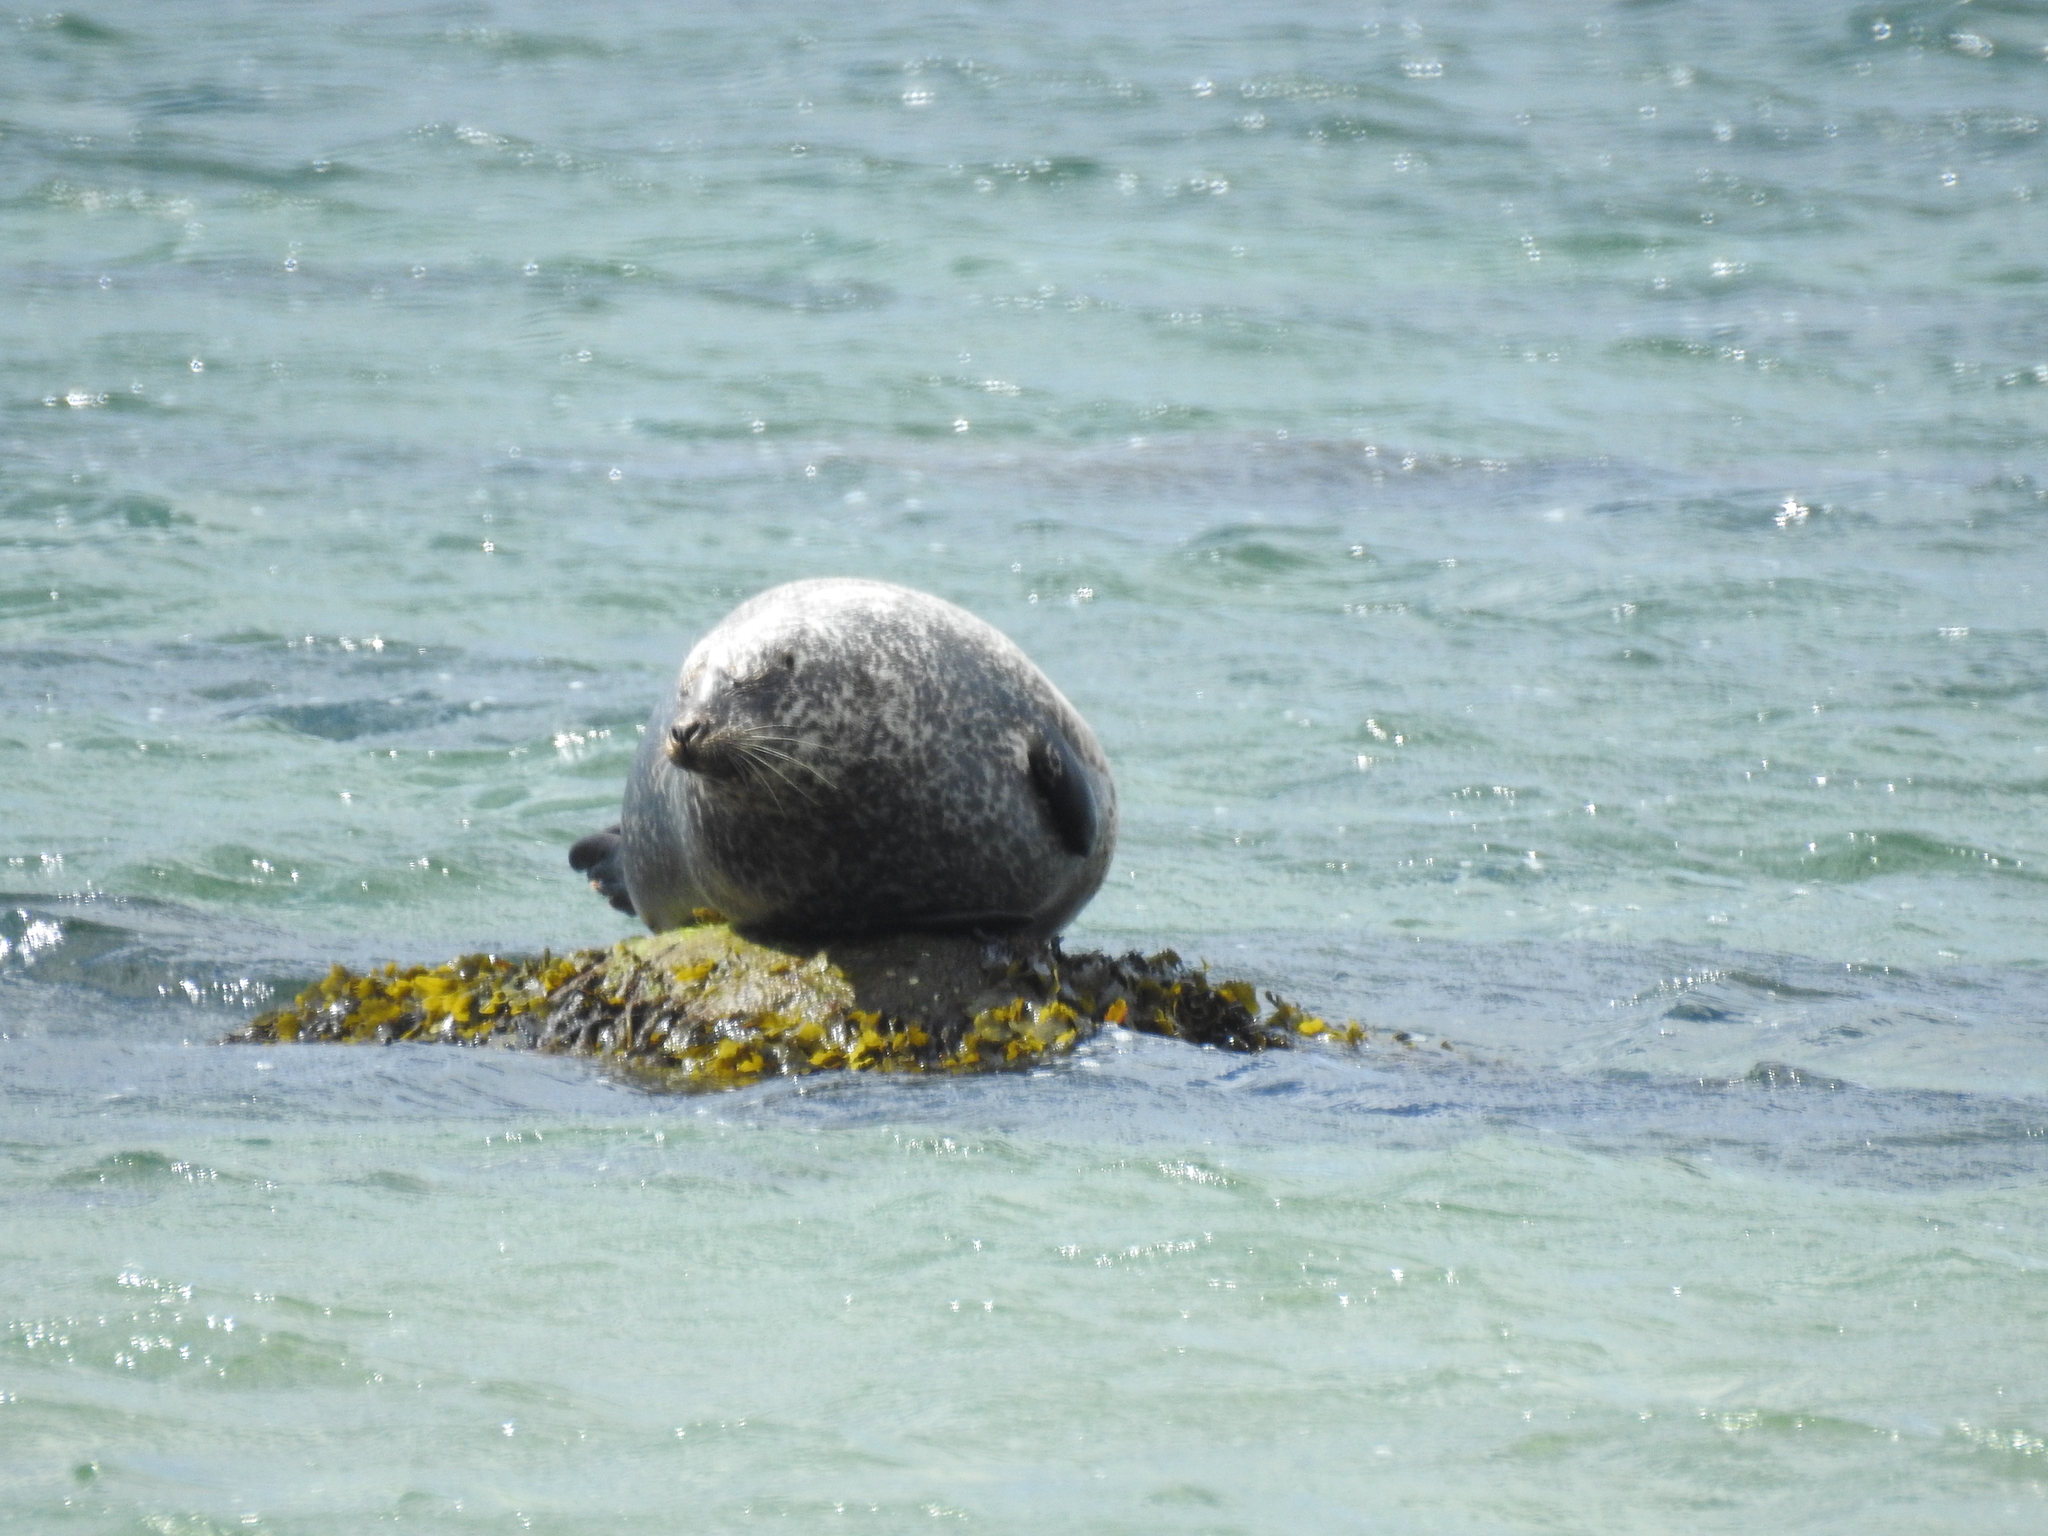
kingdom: Animalia
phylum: Chordata
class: Mammalia
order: Carnivora
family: Phocidae
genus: Phoca
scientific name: Phoca vitulina
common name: Harbor seal
